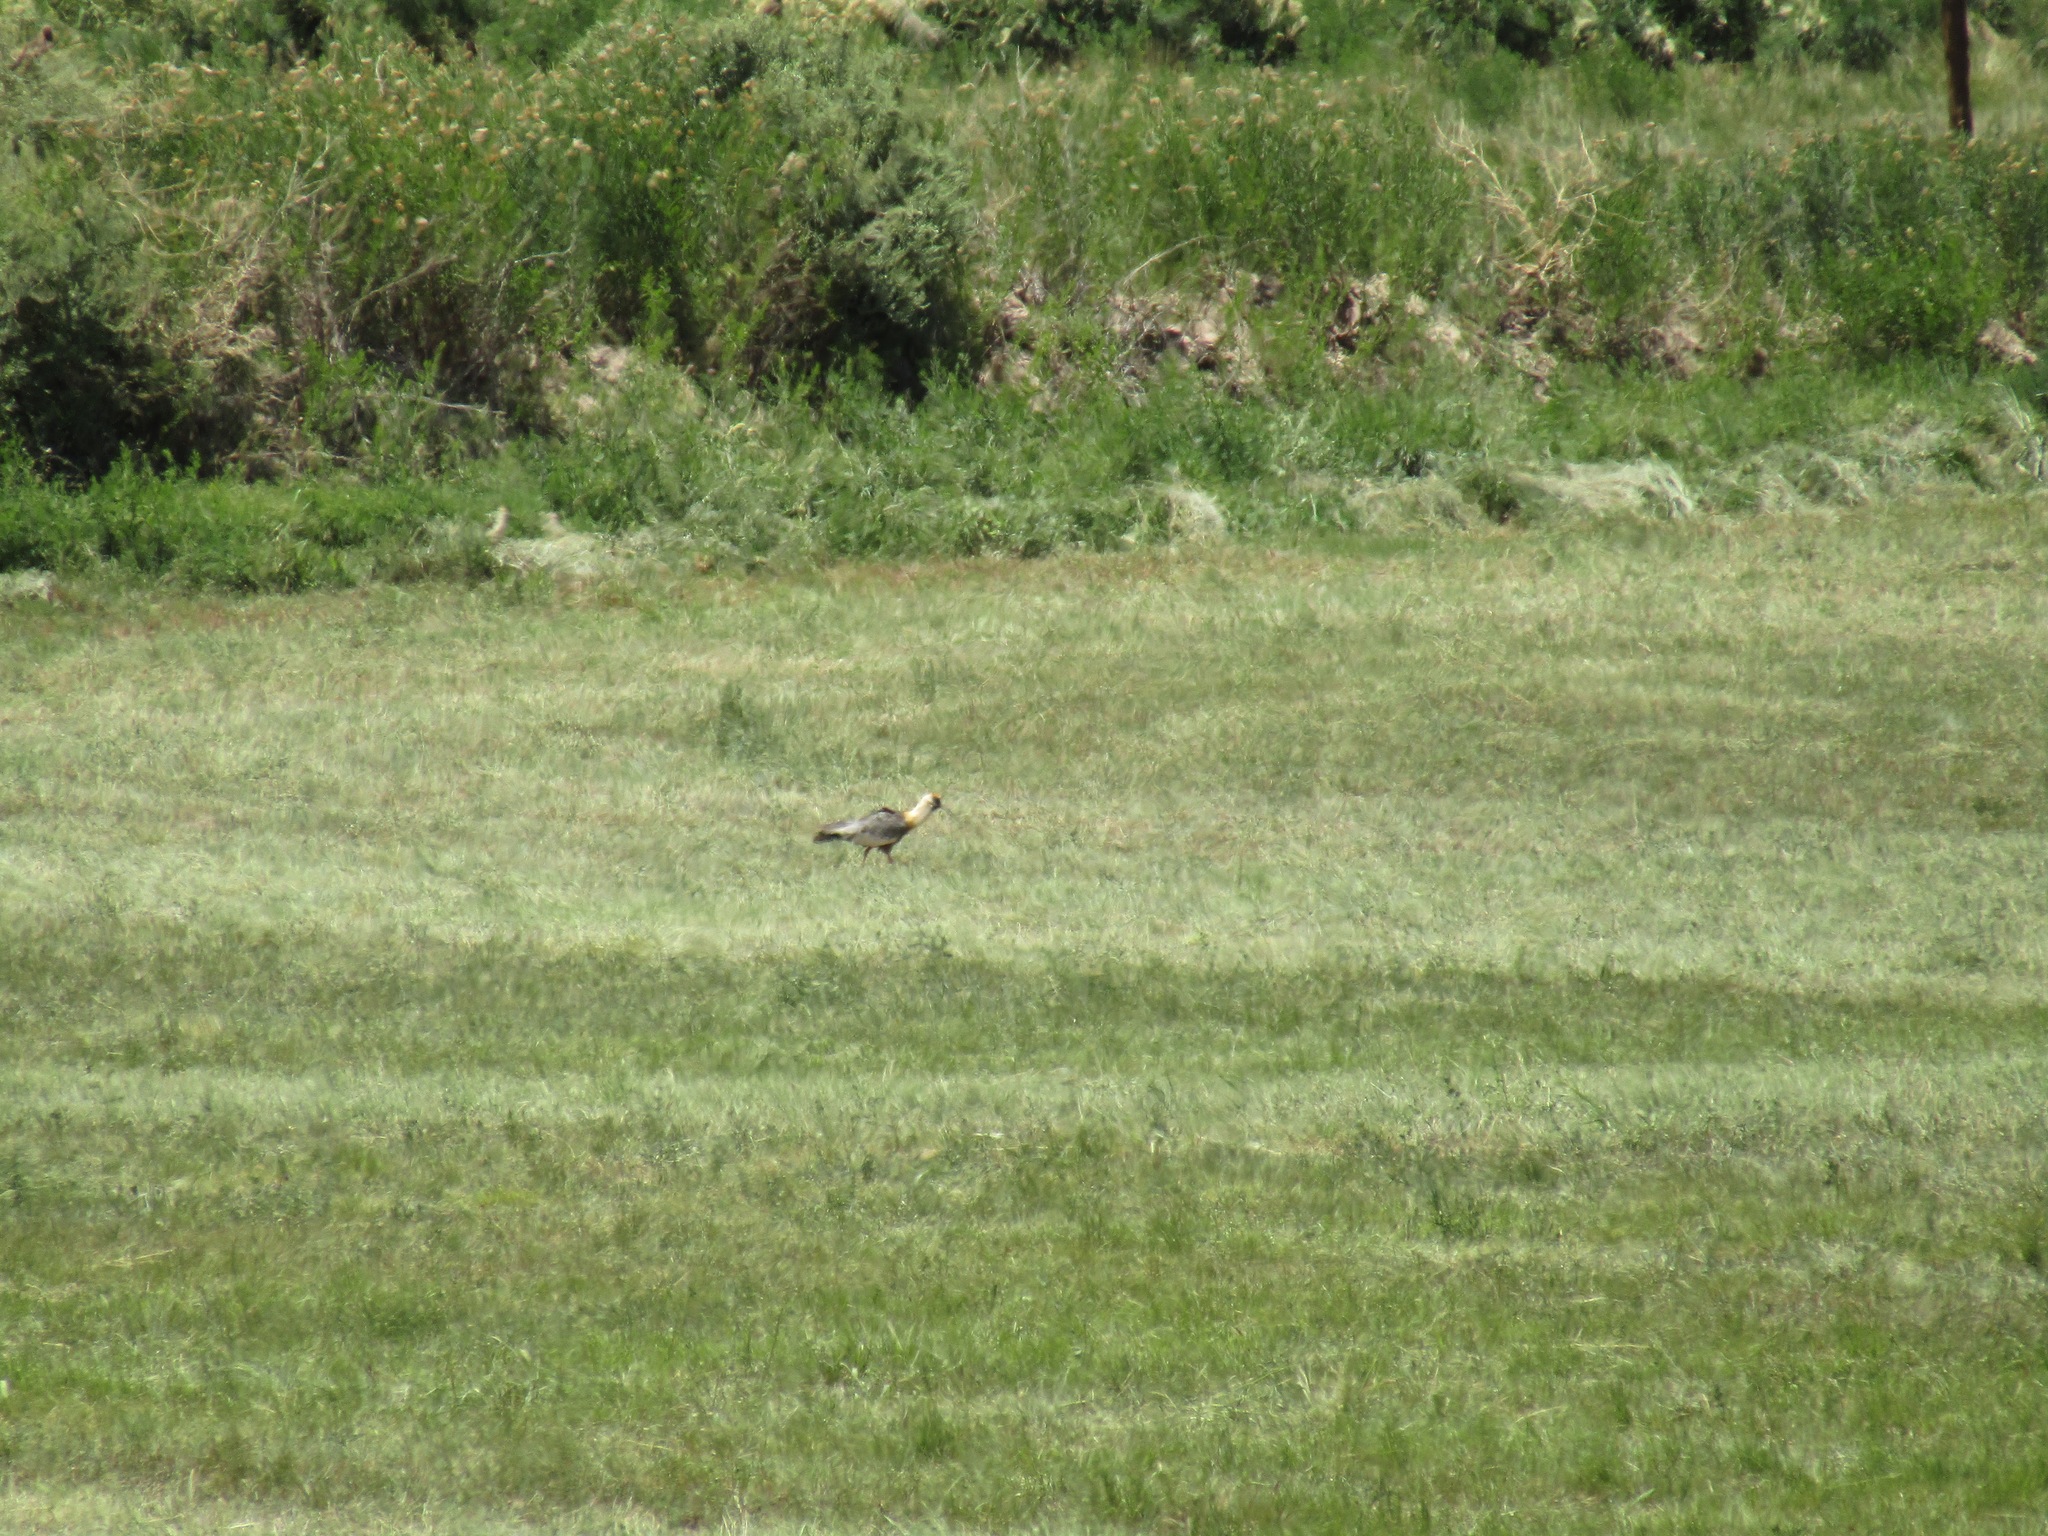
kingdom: Animalia
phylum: Chordata
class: Aves
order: Pelecaniformes
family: Threskiornithidae
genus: Theristicus
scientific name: Theristicus caudatus
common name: Buff-necked ibis
